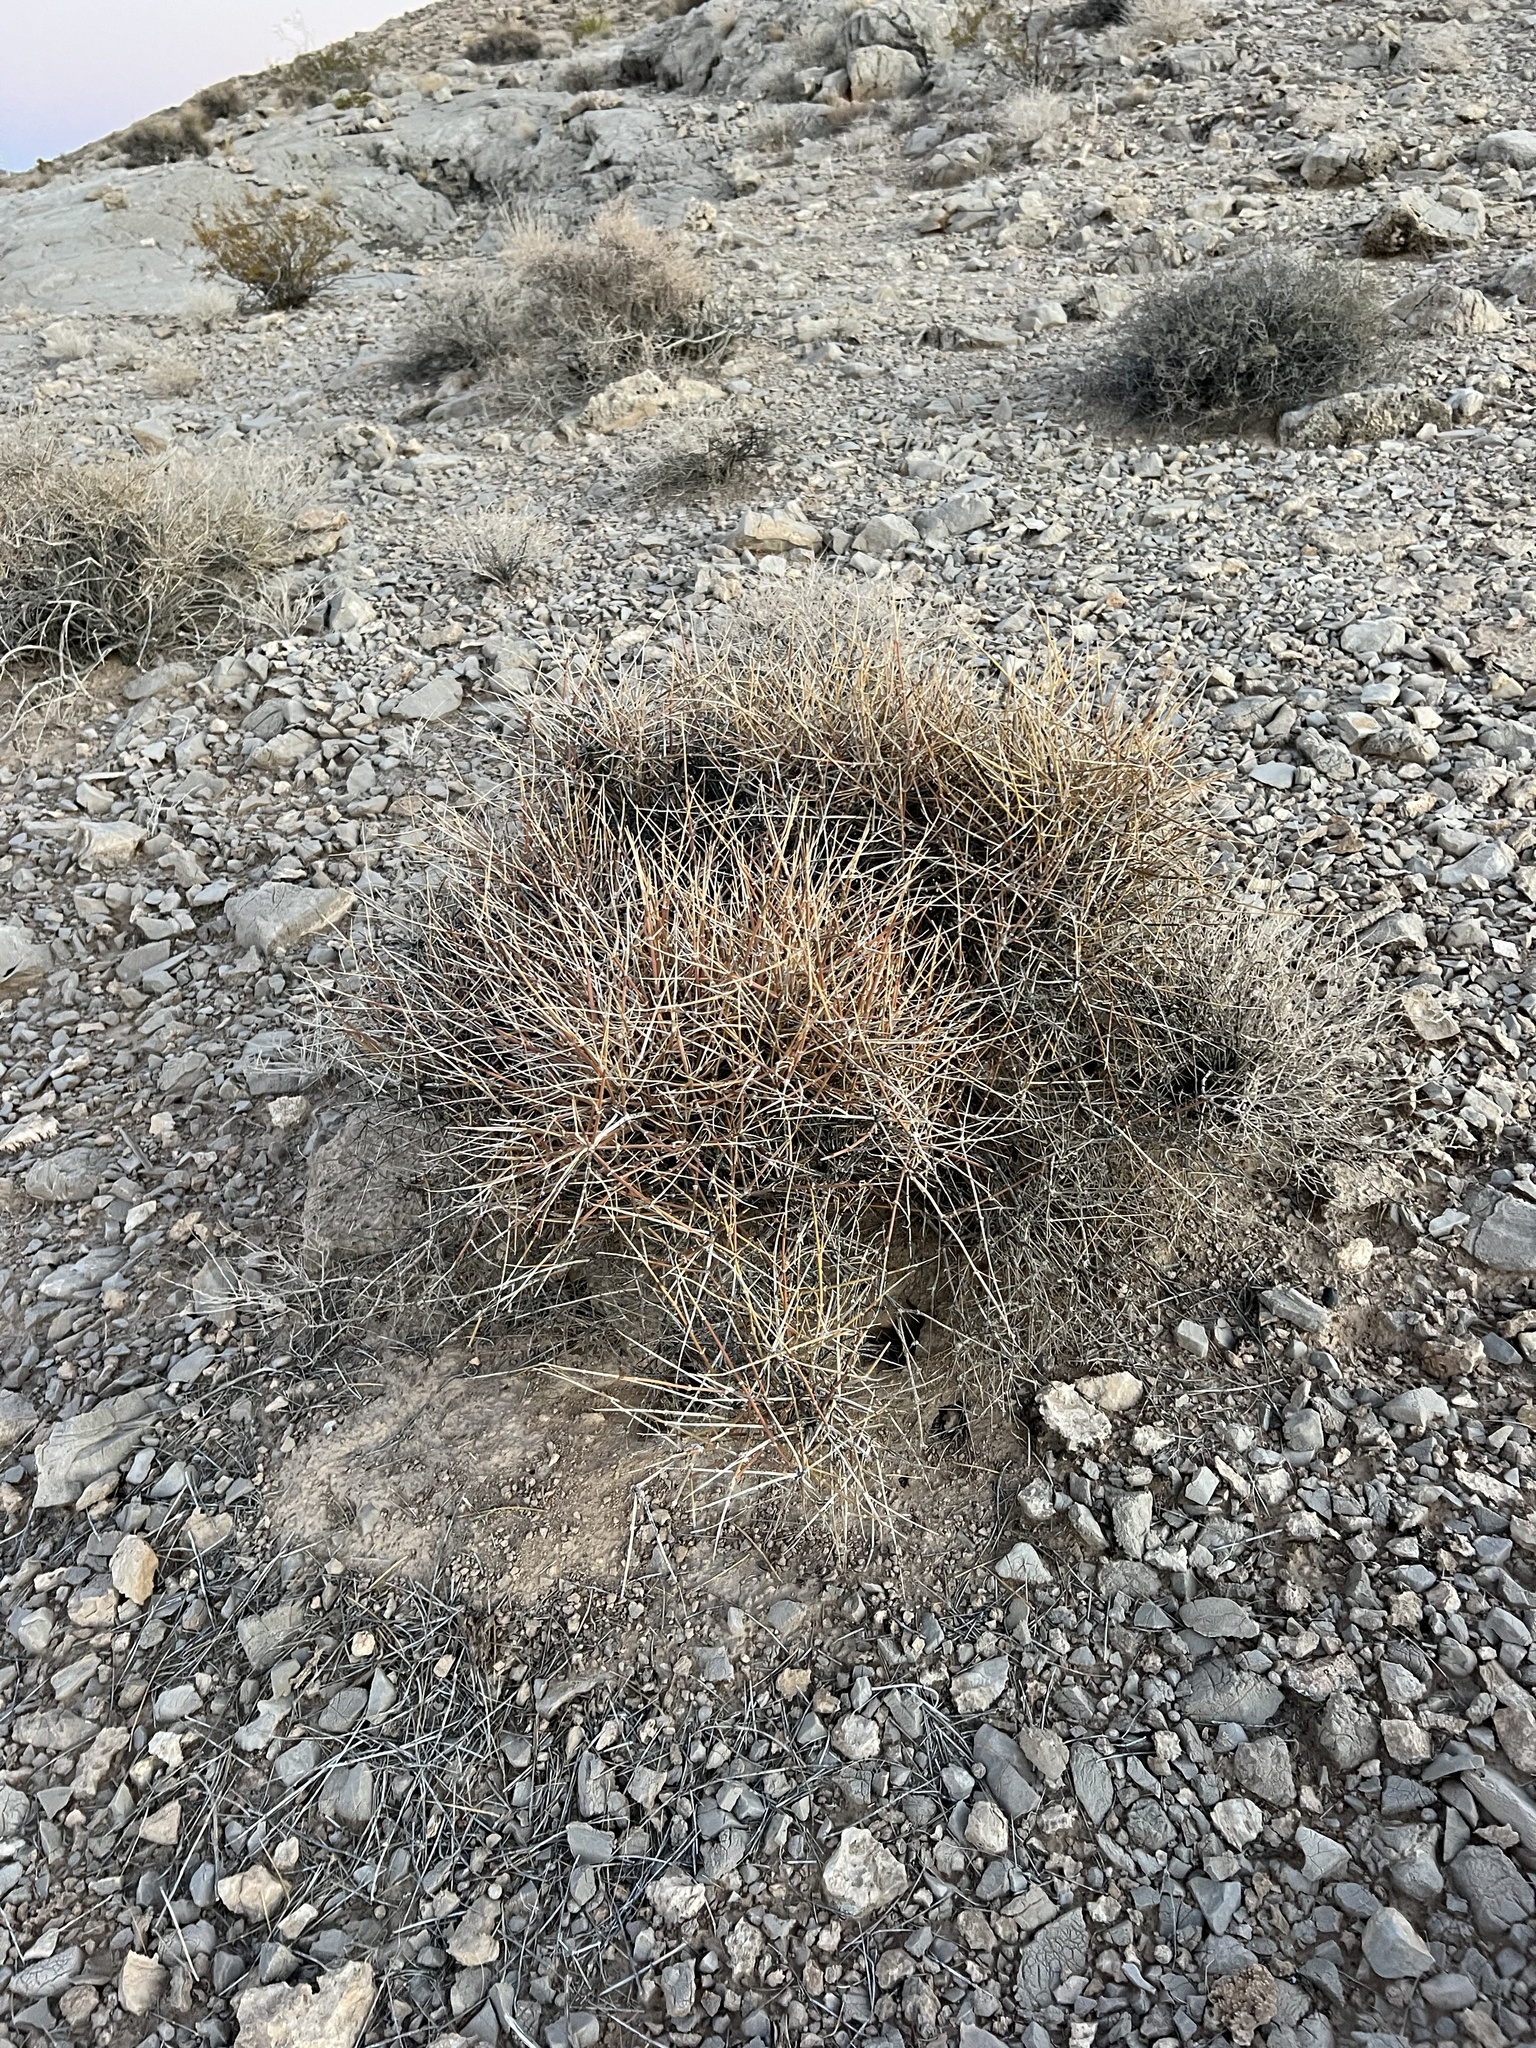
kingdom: Plantae
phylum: Tracheophyta
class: Gnetopsida
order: Ephedrales
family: Ephedraceae
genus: Ephedra
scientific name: Ephedra nevadensis
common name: Gray ephedra
